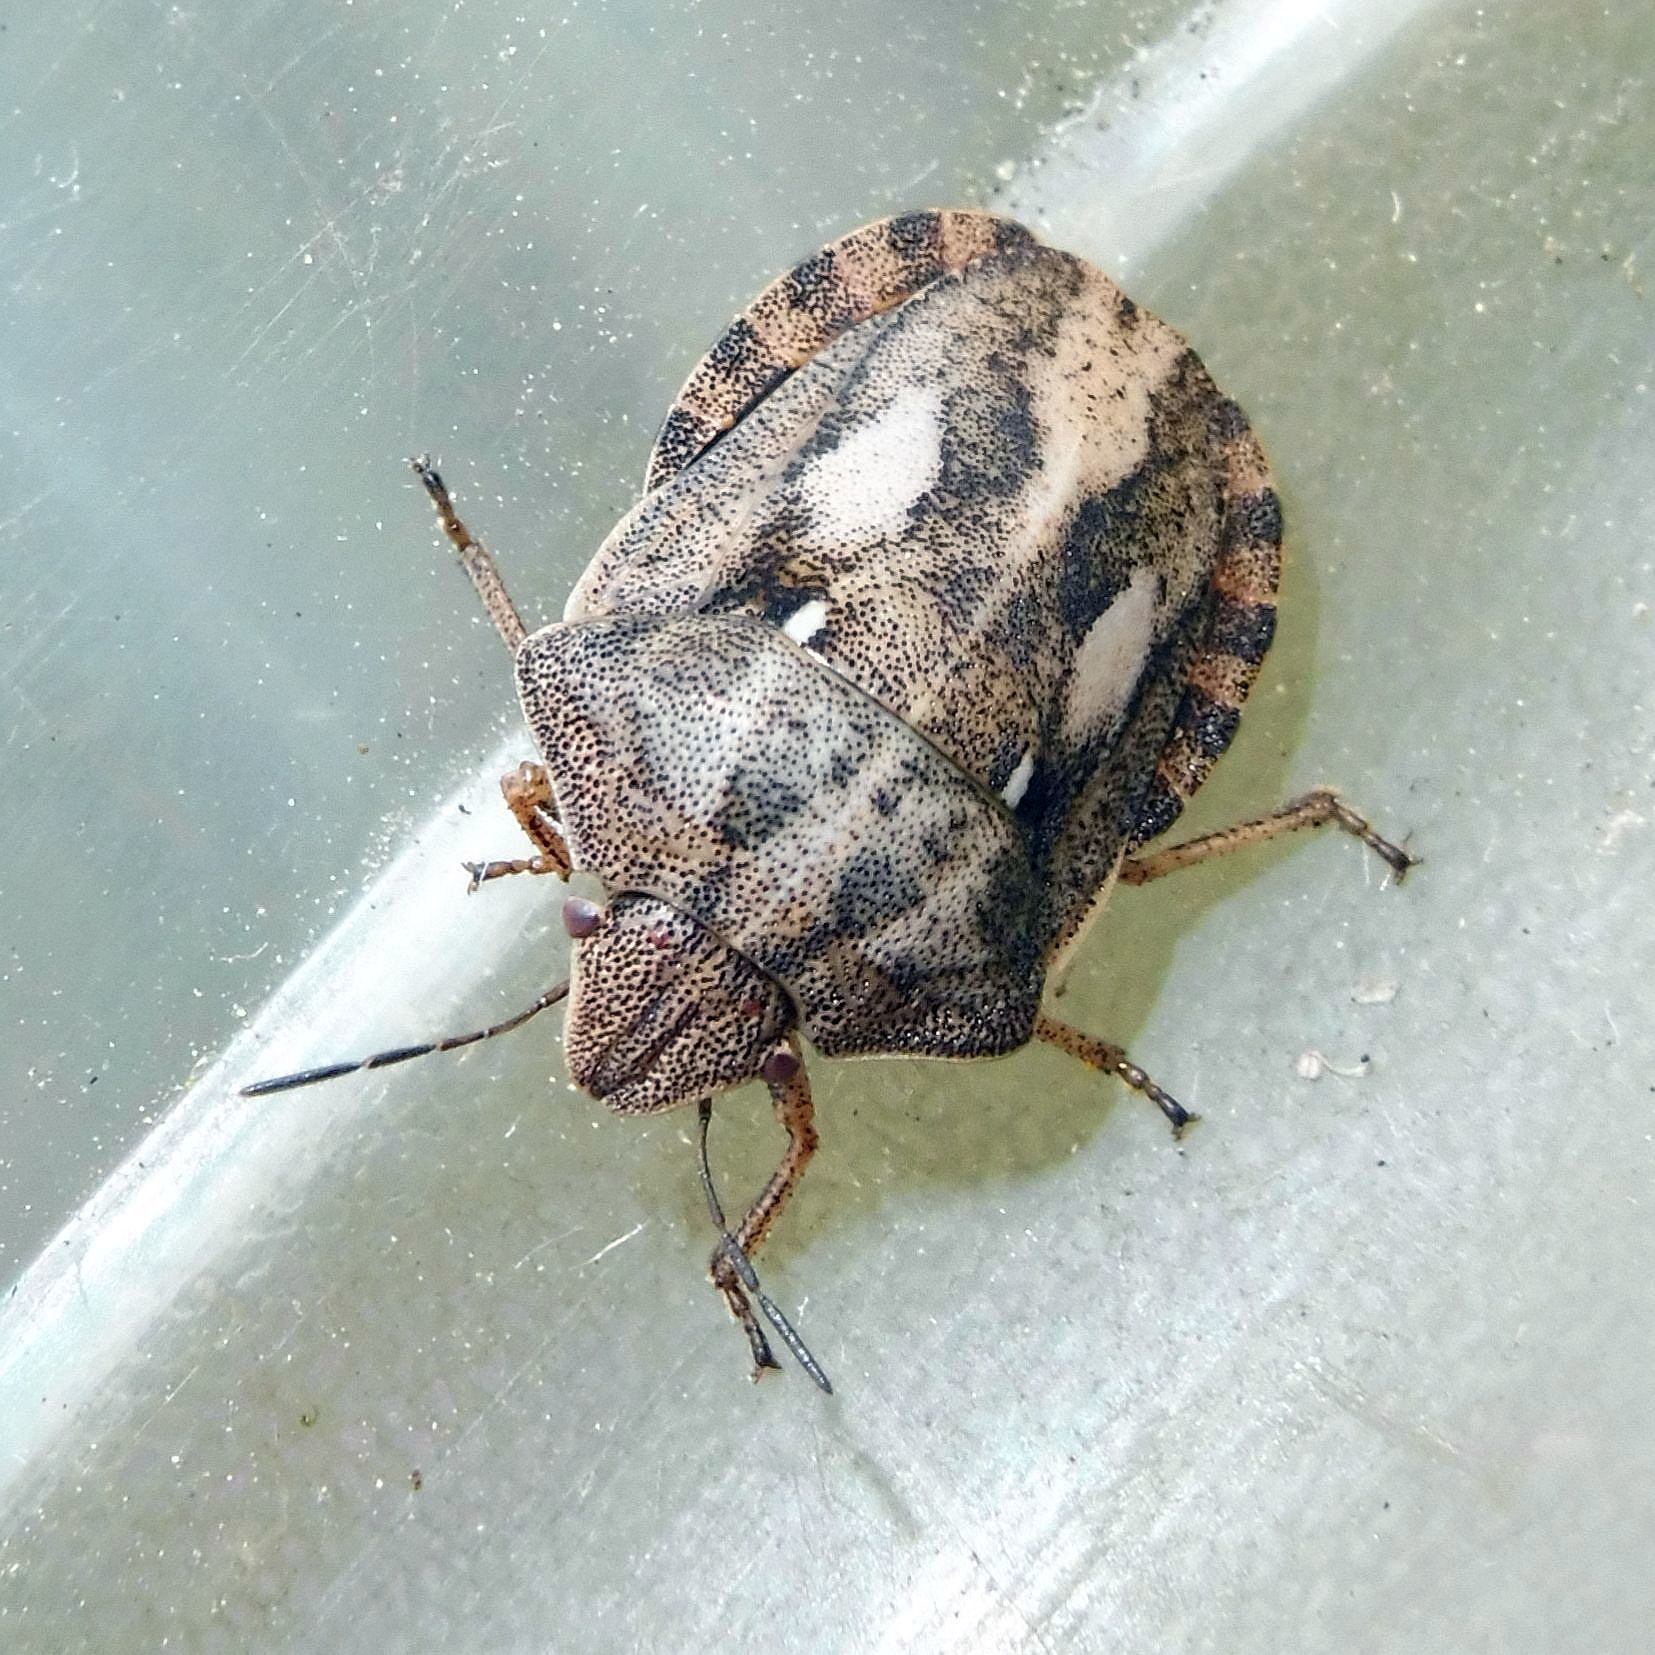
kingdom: Animalia
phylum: Arthropoda
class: Insecta
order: Hemiptera
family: Scutelleridae
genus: Eurygaster
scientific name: Eurygaster testudinaria
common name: Tortoise bug
